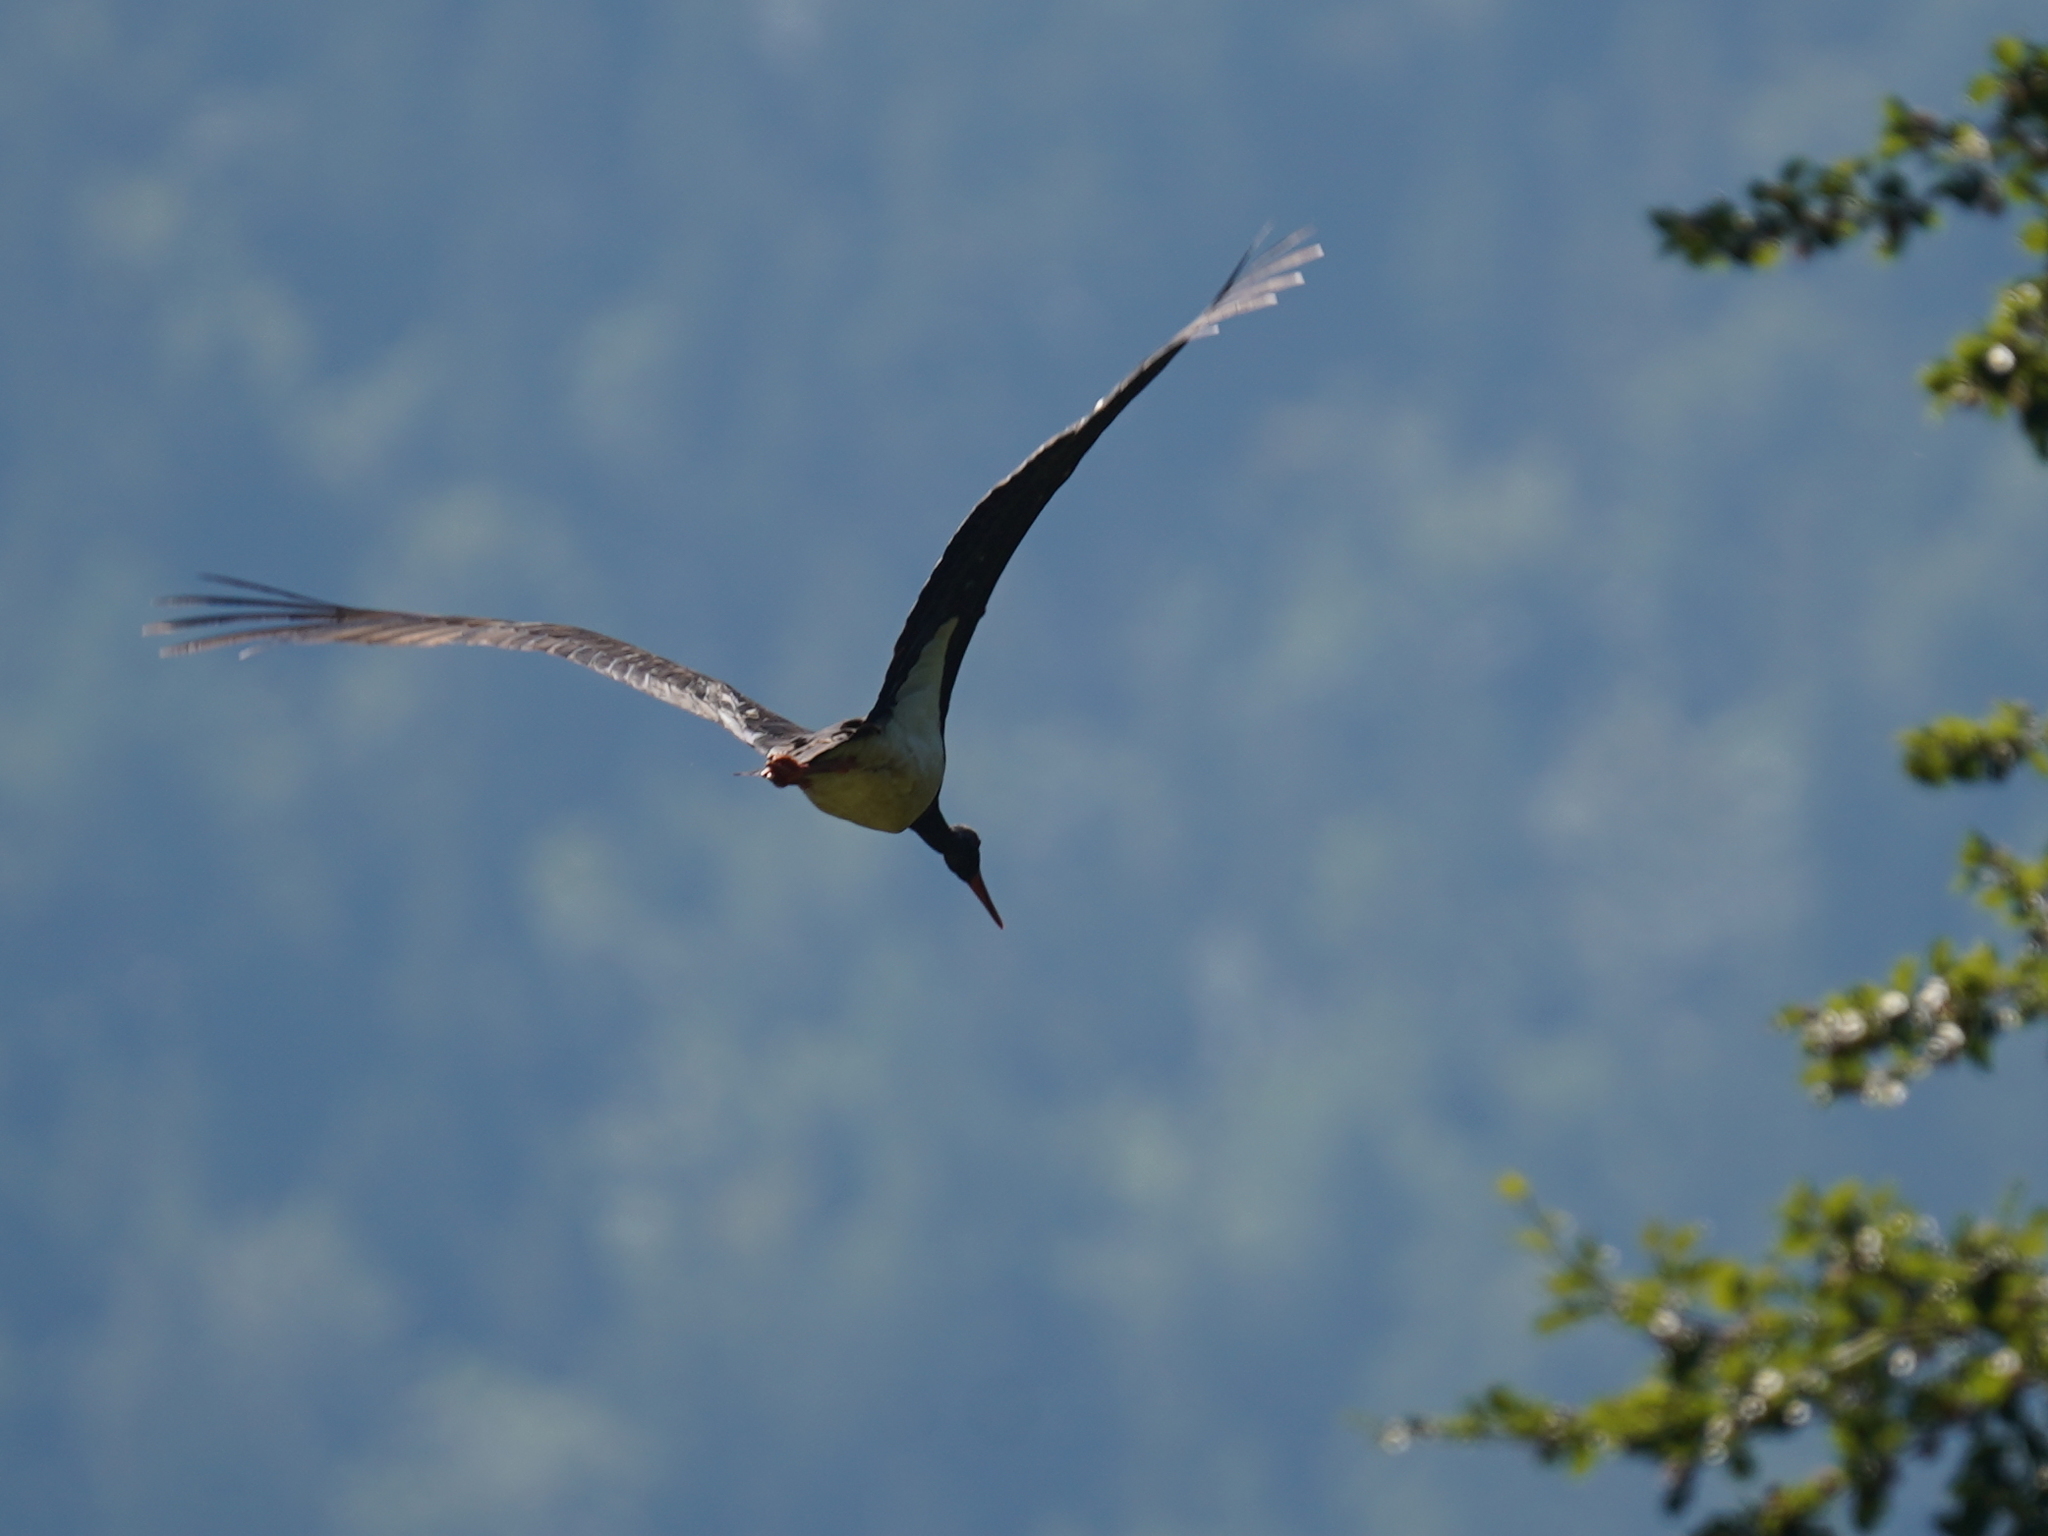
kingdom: Animalia
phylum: Chordata
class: Aves
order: Ciconiiformes
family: Ciconiidae
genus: Ciconia
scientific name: Ciconia nigra
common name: Black stork
